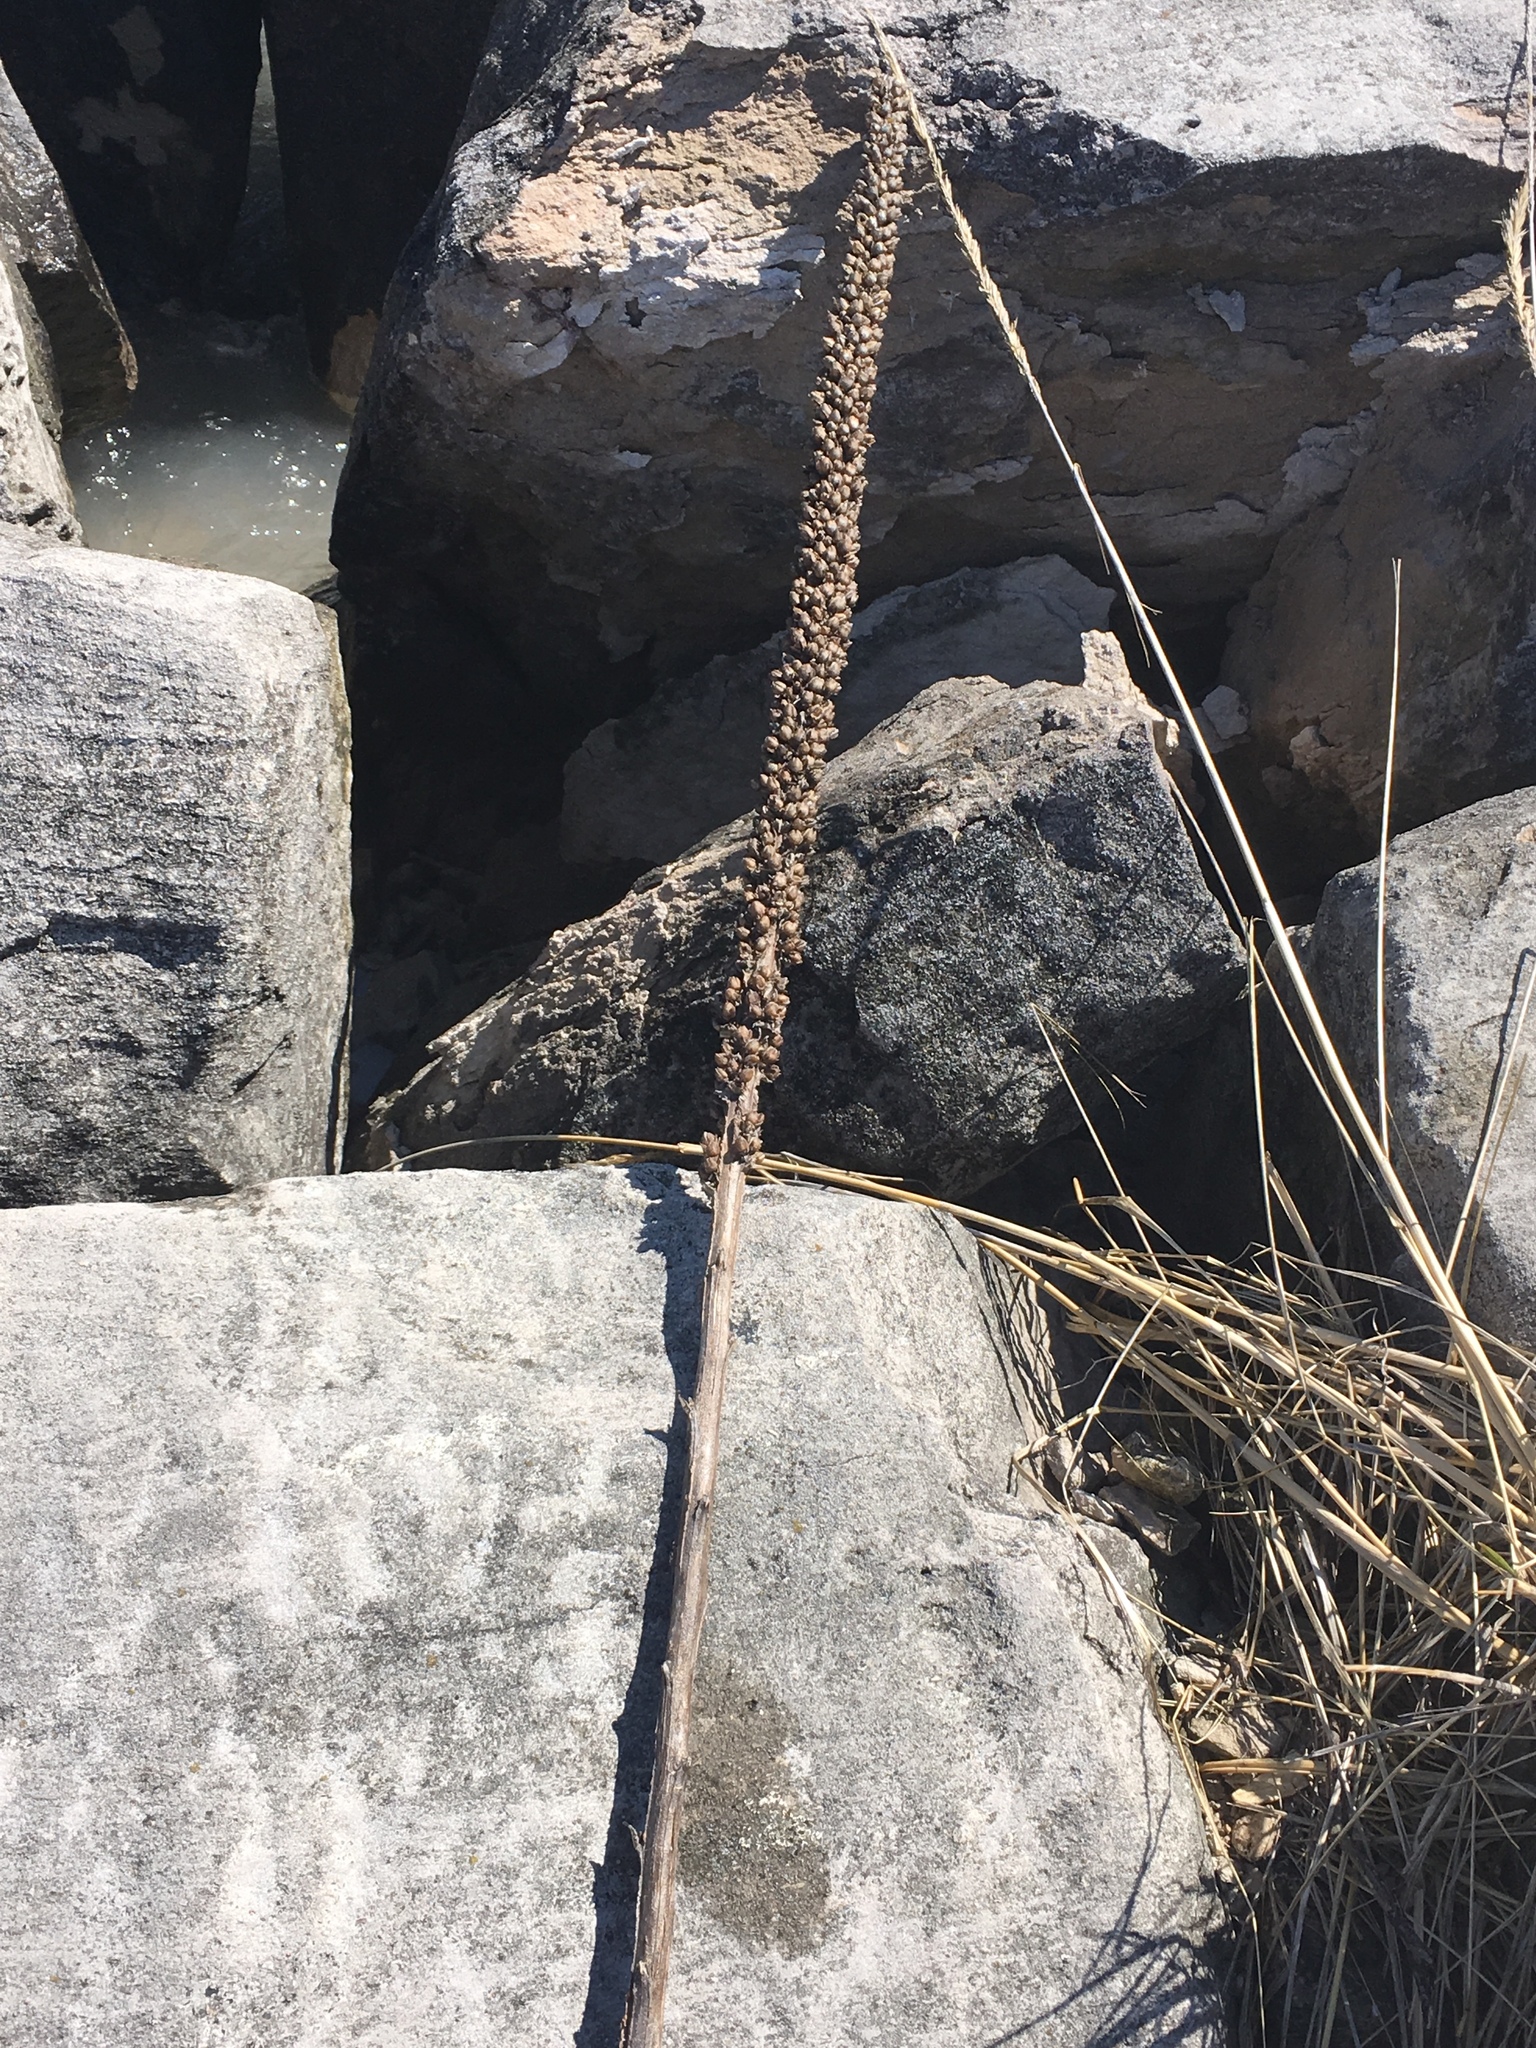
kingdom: Plantae
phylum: Tracheophyta
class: Magnoliopsida
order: Lamiales
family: Scrophulariaceae
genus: Verbascum
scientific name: Verbascum thapsus
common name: Common mullein
